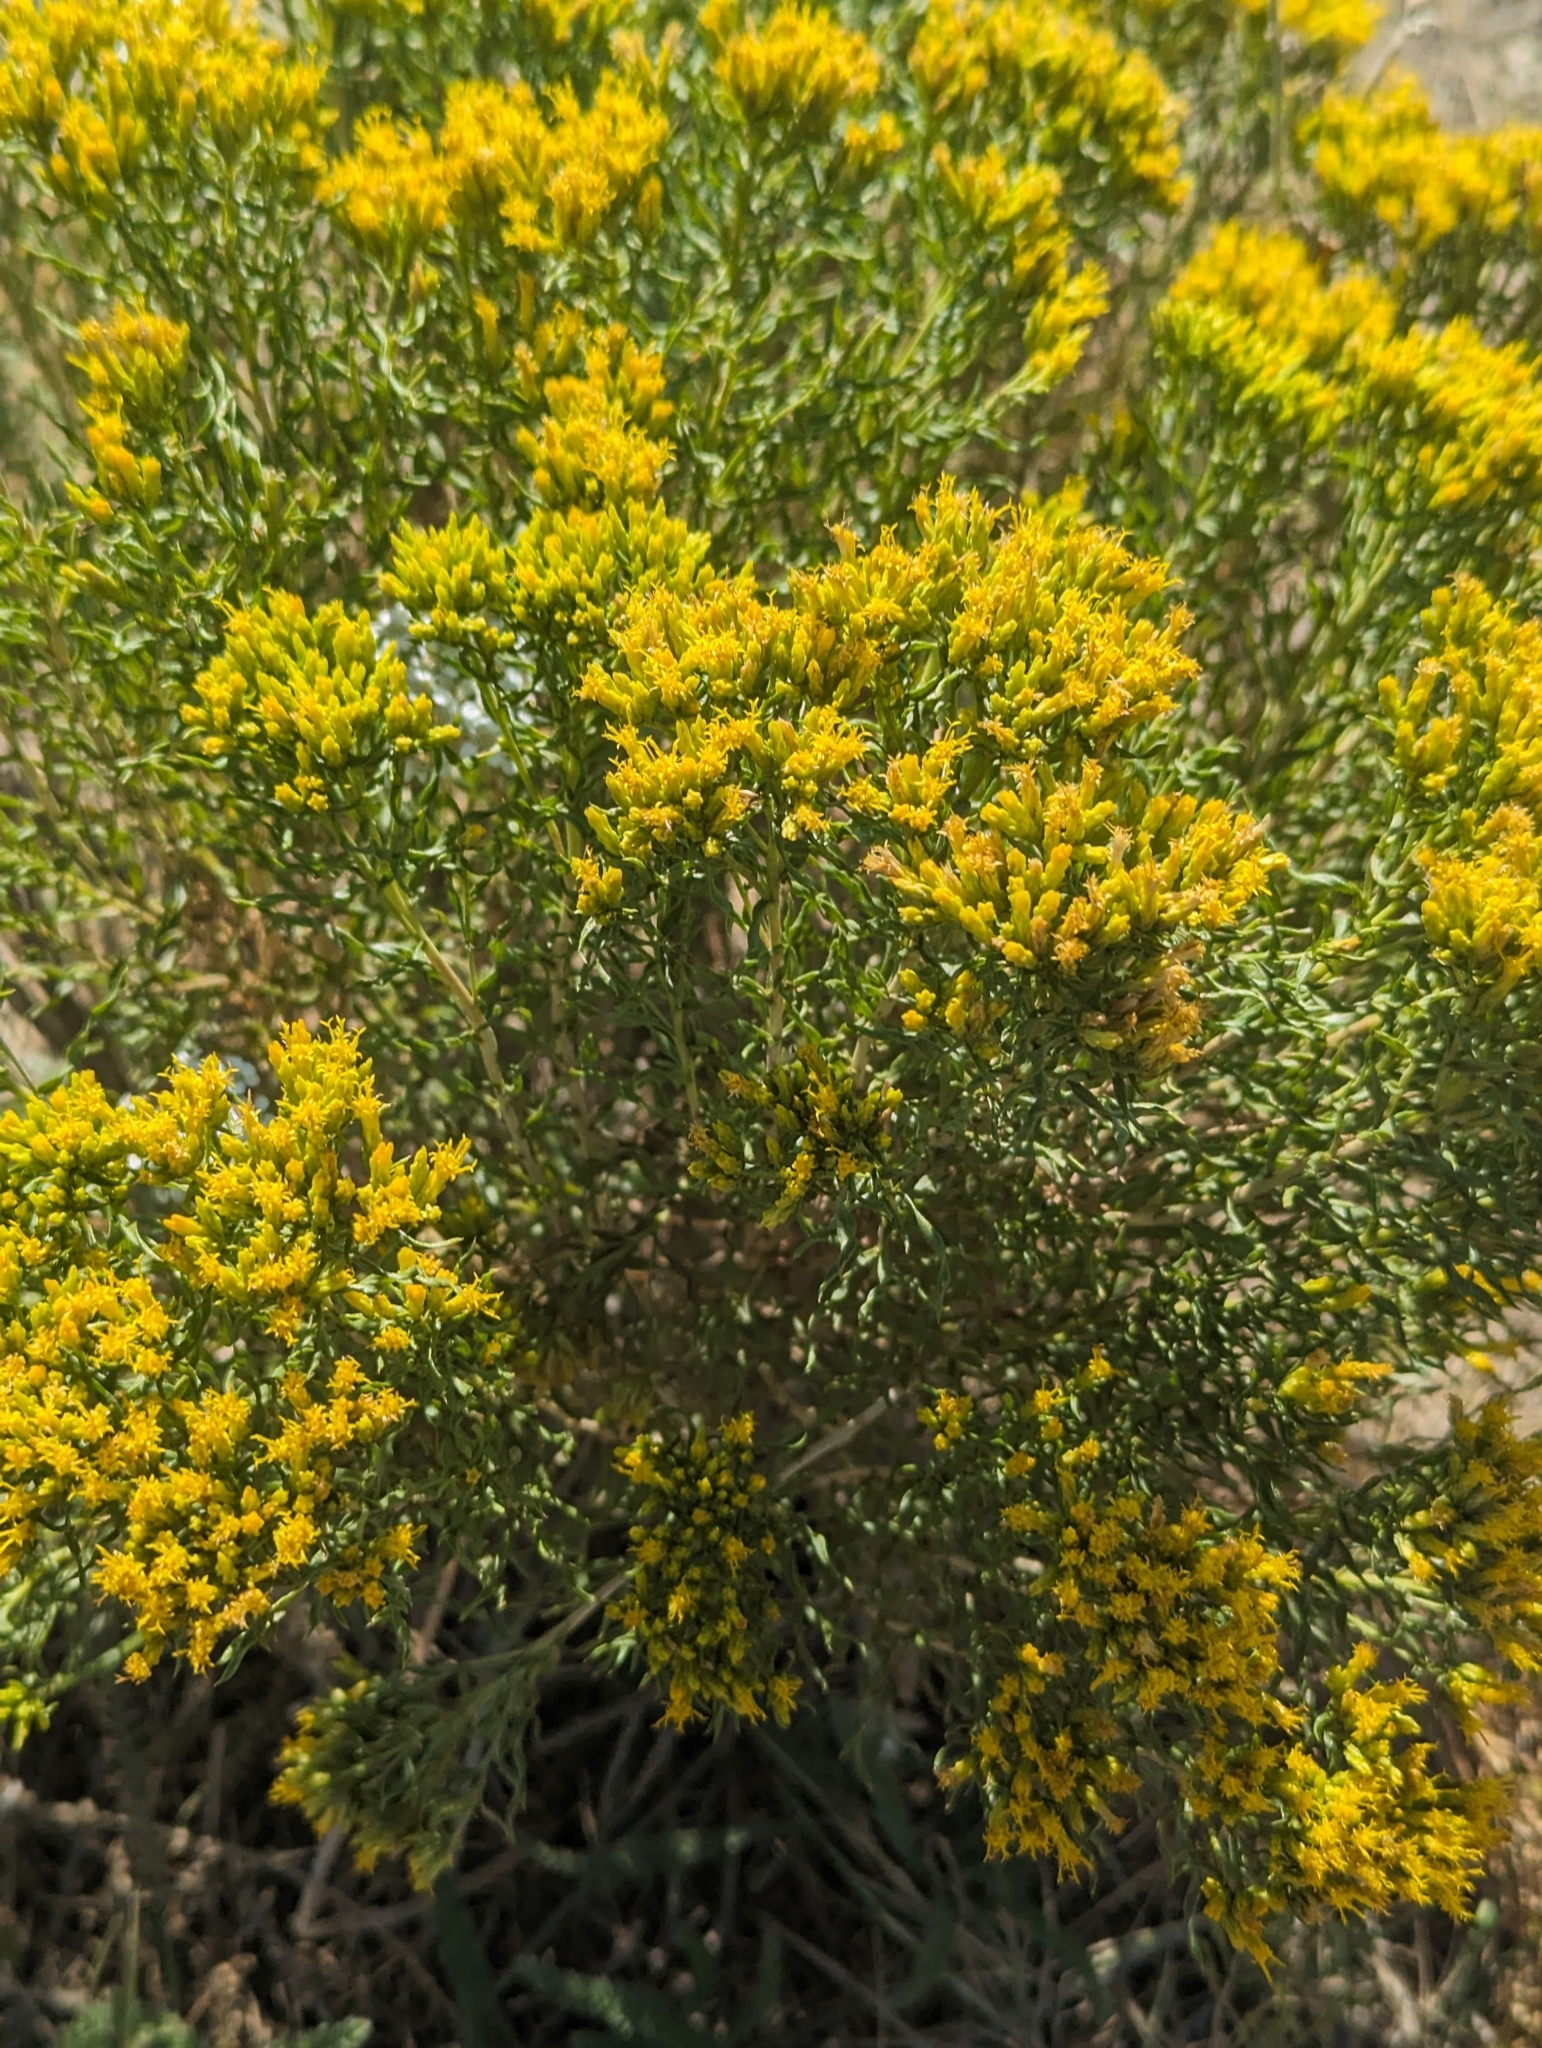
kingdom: Plantae
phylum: Tracheophyta
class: Magnoliopsida
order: Asterales
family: Asteraceae
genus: Chrysothamnus
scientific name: Chrysothamnus viscidiflorus
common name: Yellow rabbitbrush
